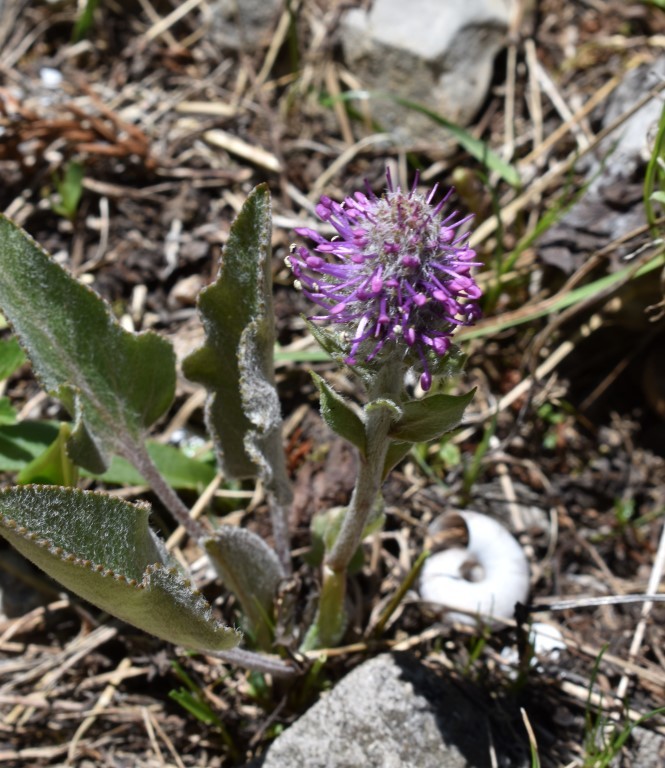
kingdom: Plantae
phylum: Tracheophyta
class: Magnoliopsida
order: Lamiales
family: Plantaginaceae
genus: Synthyris
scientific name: Synthyris wyomingensis
